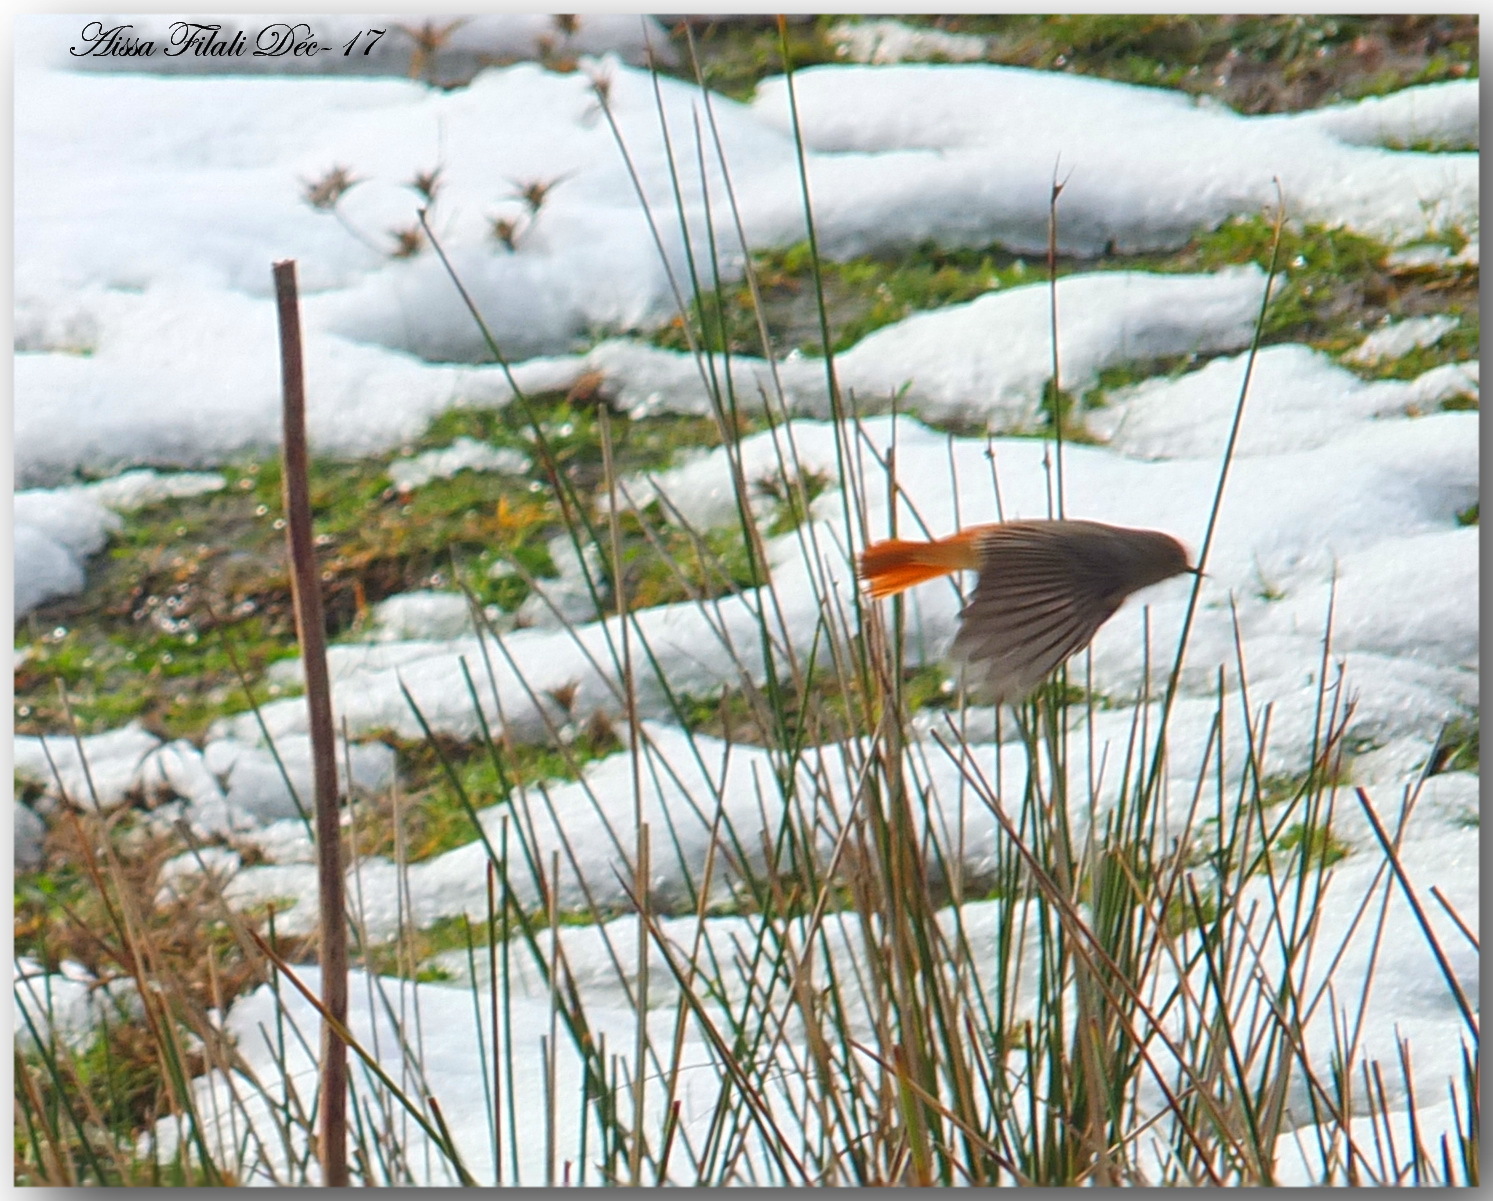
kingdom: Animalia
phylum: Chordata
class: Aves
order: Passeriformes
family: Muscicapidae
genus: Phoenicurus
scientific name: Phoenicurus ochruros
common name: Black redstart
